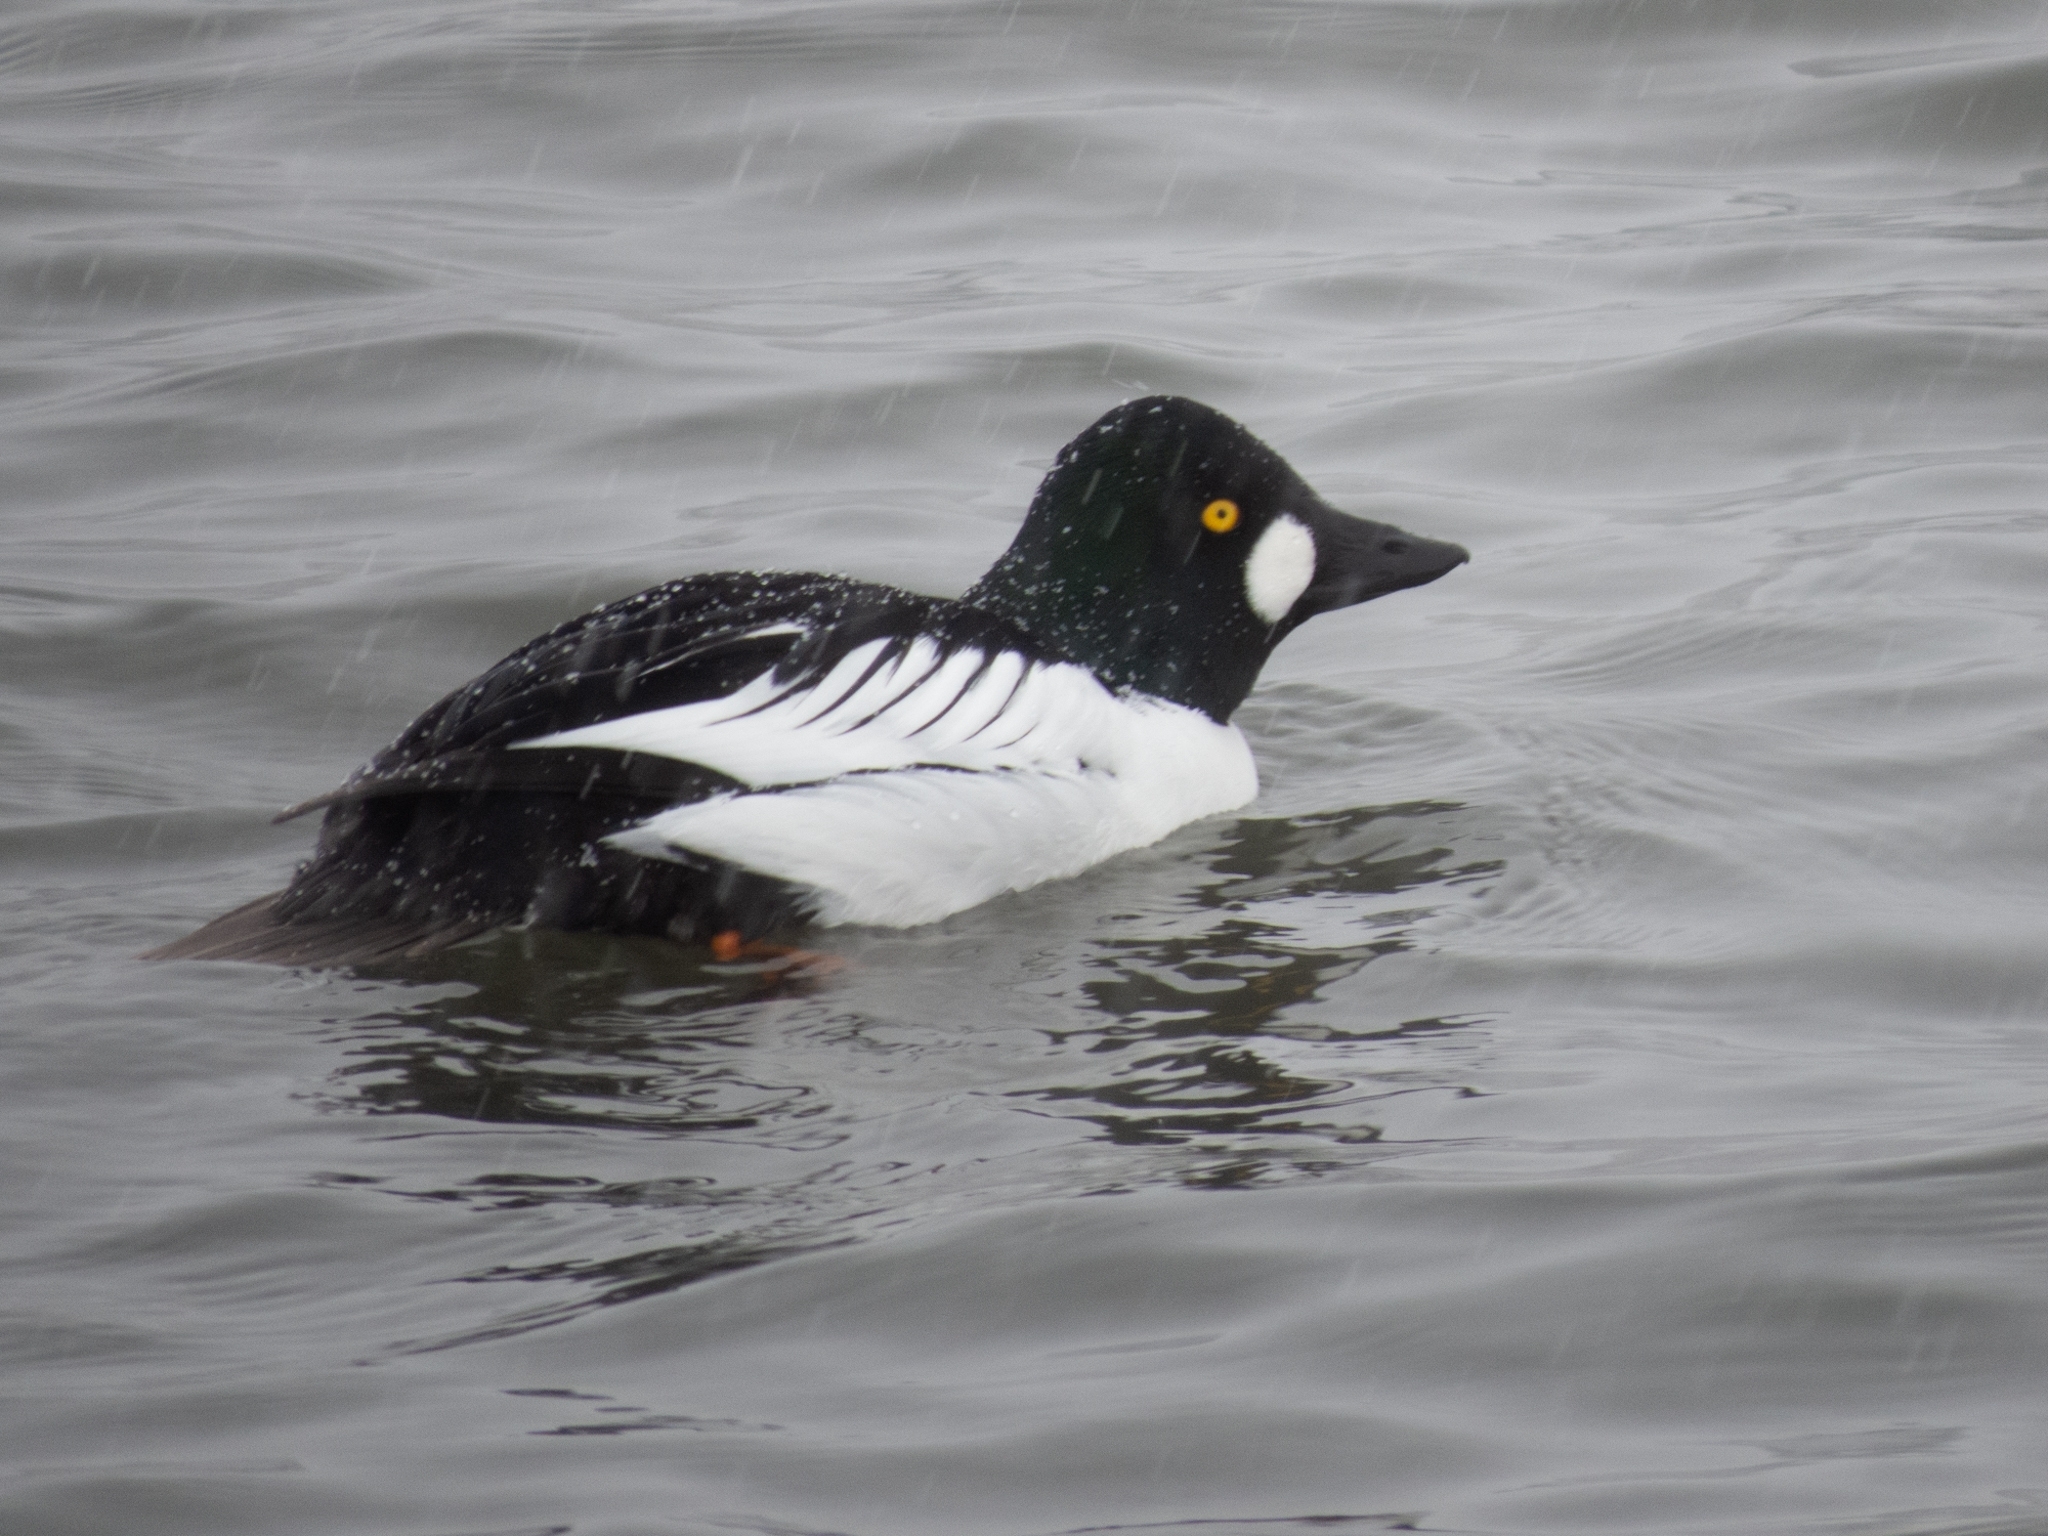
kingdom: Animalia
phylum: Chordata
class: Aves
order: Anseriformes
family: Anatidae
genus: Bucephala
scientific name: Bucephala clangula
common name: Common goldeneye
